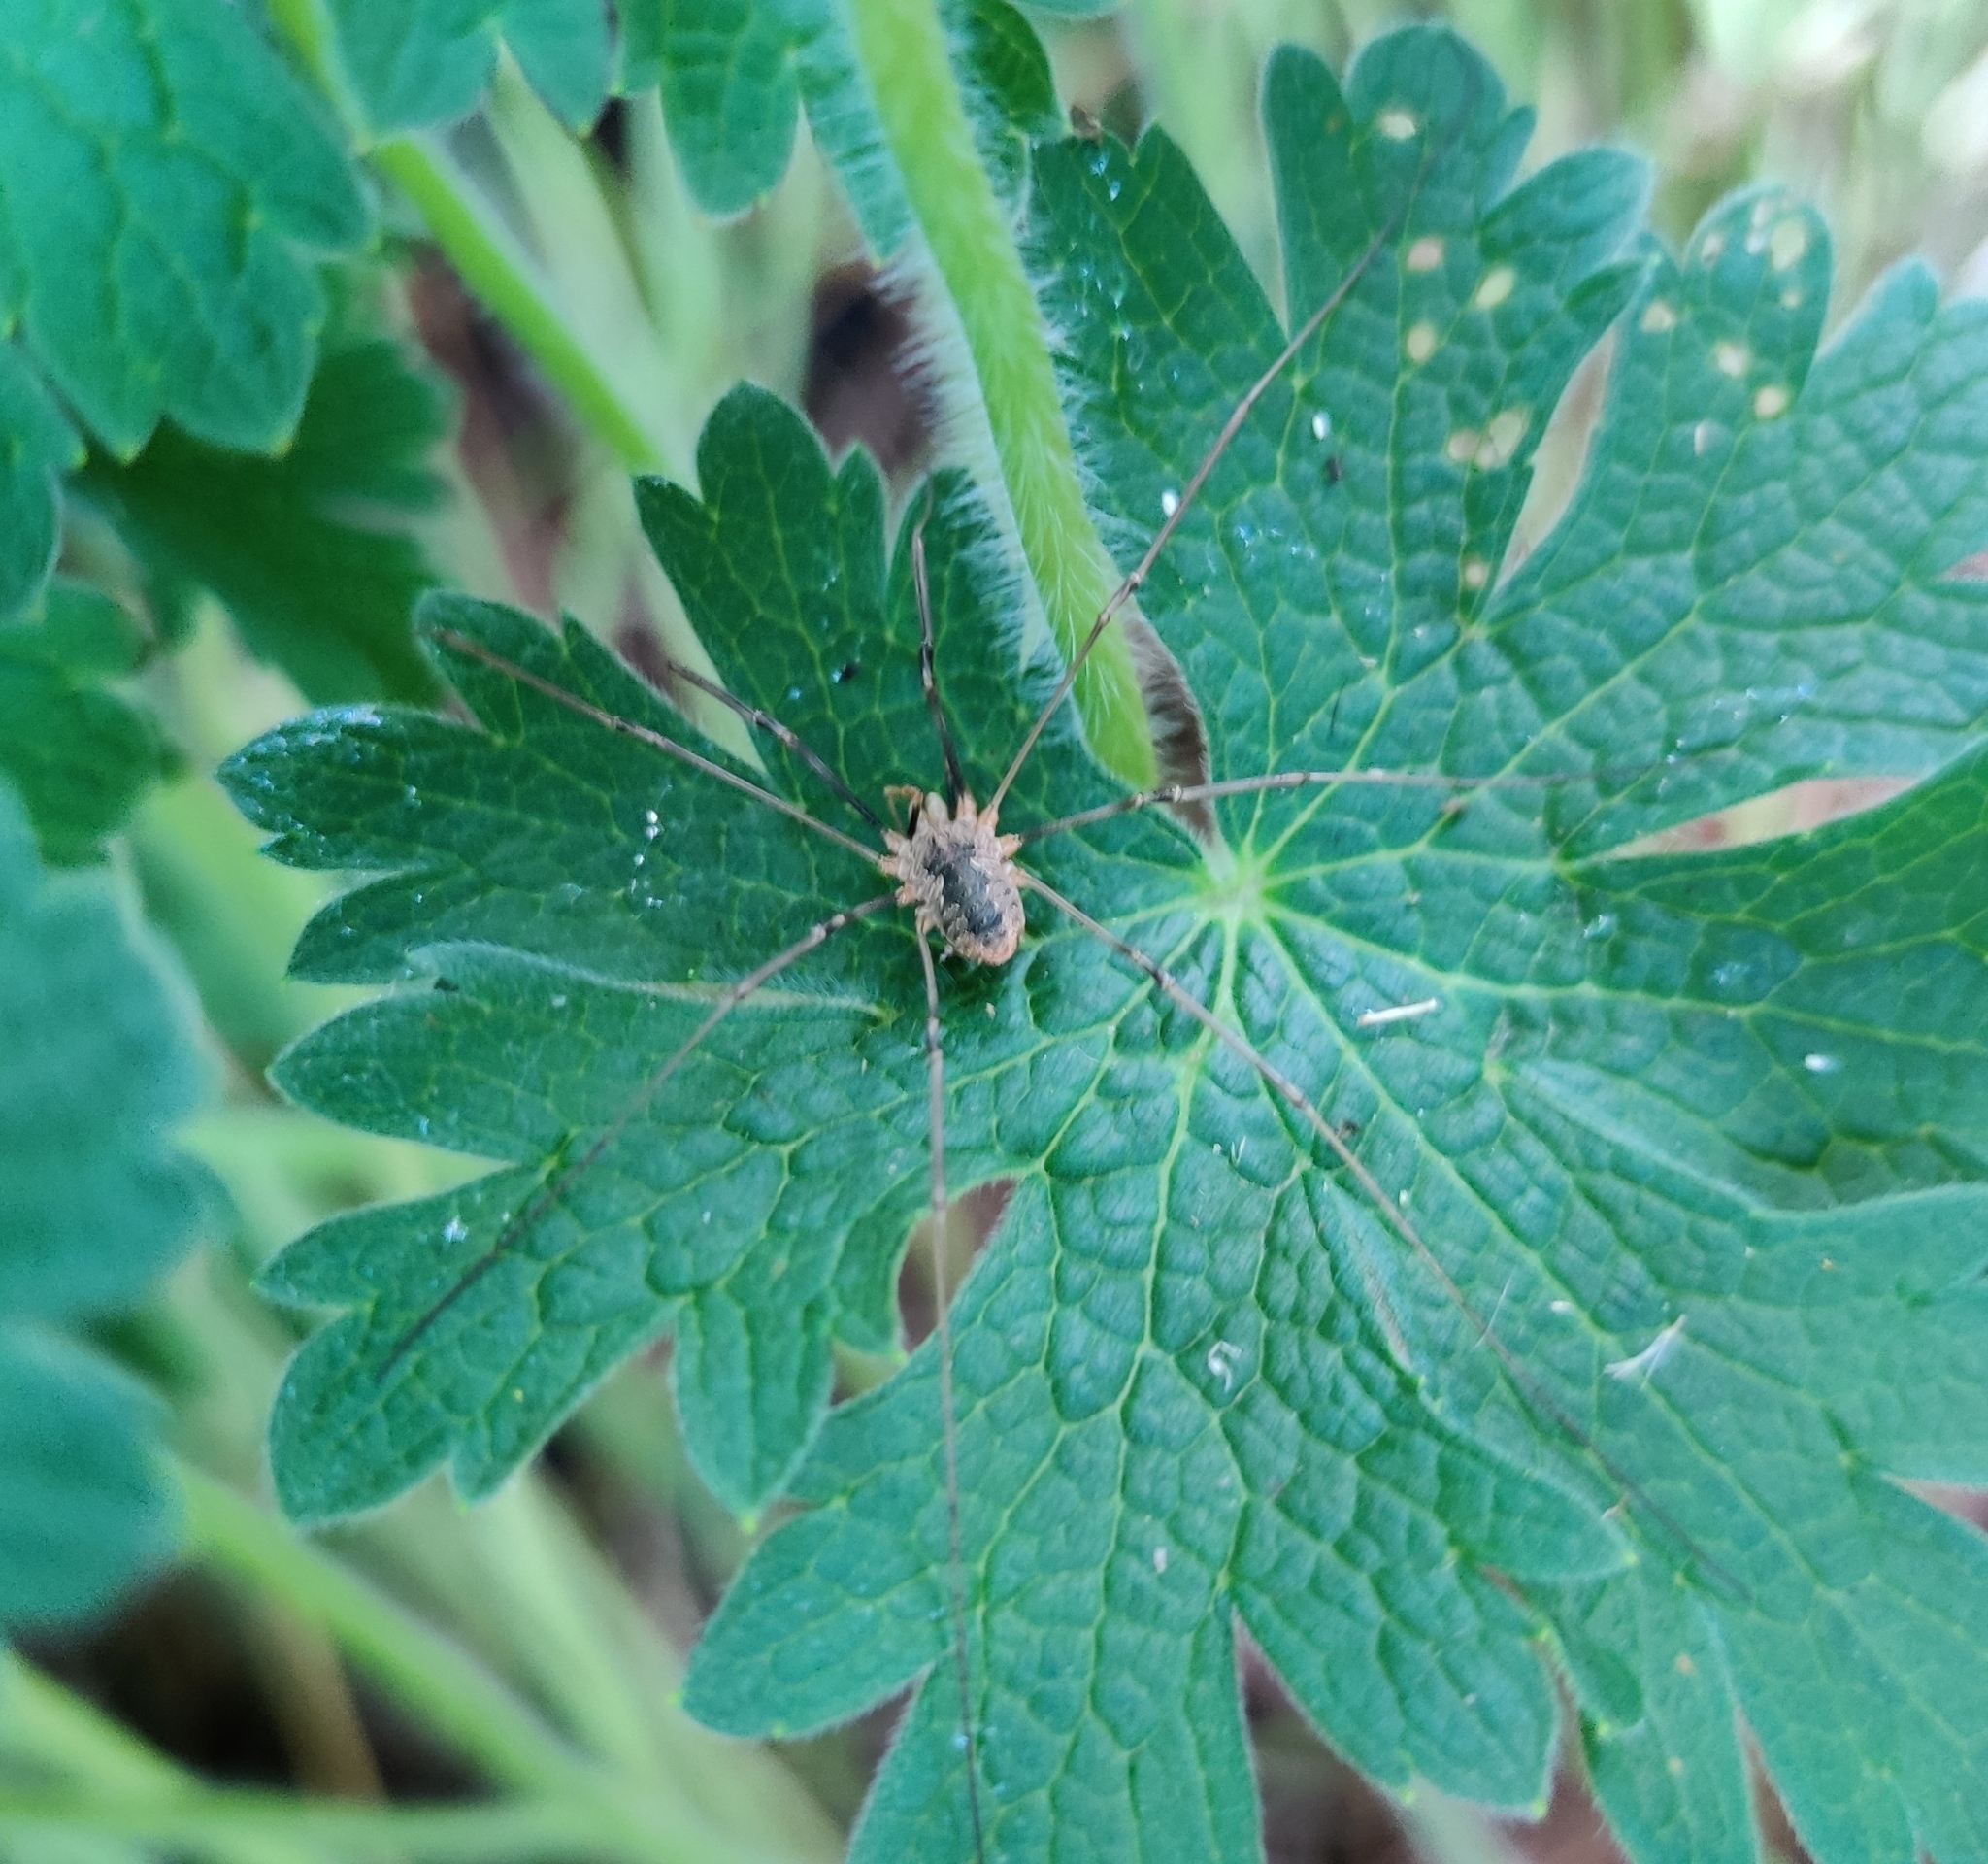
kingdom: Animalia
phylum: Arthropoda
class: Arachnida
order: Opiliones
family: Phalangiidae
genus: Phalangium
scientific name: Phalangium opilio
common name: Daddy longleg
